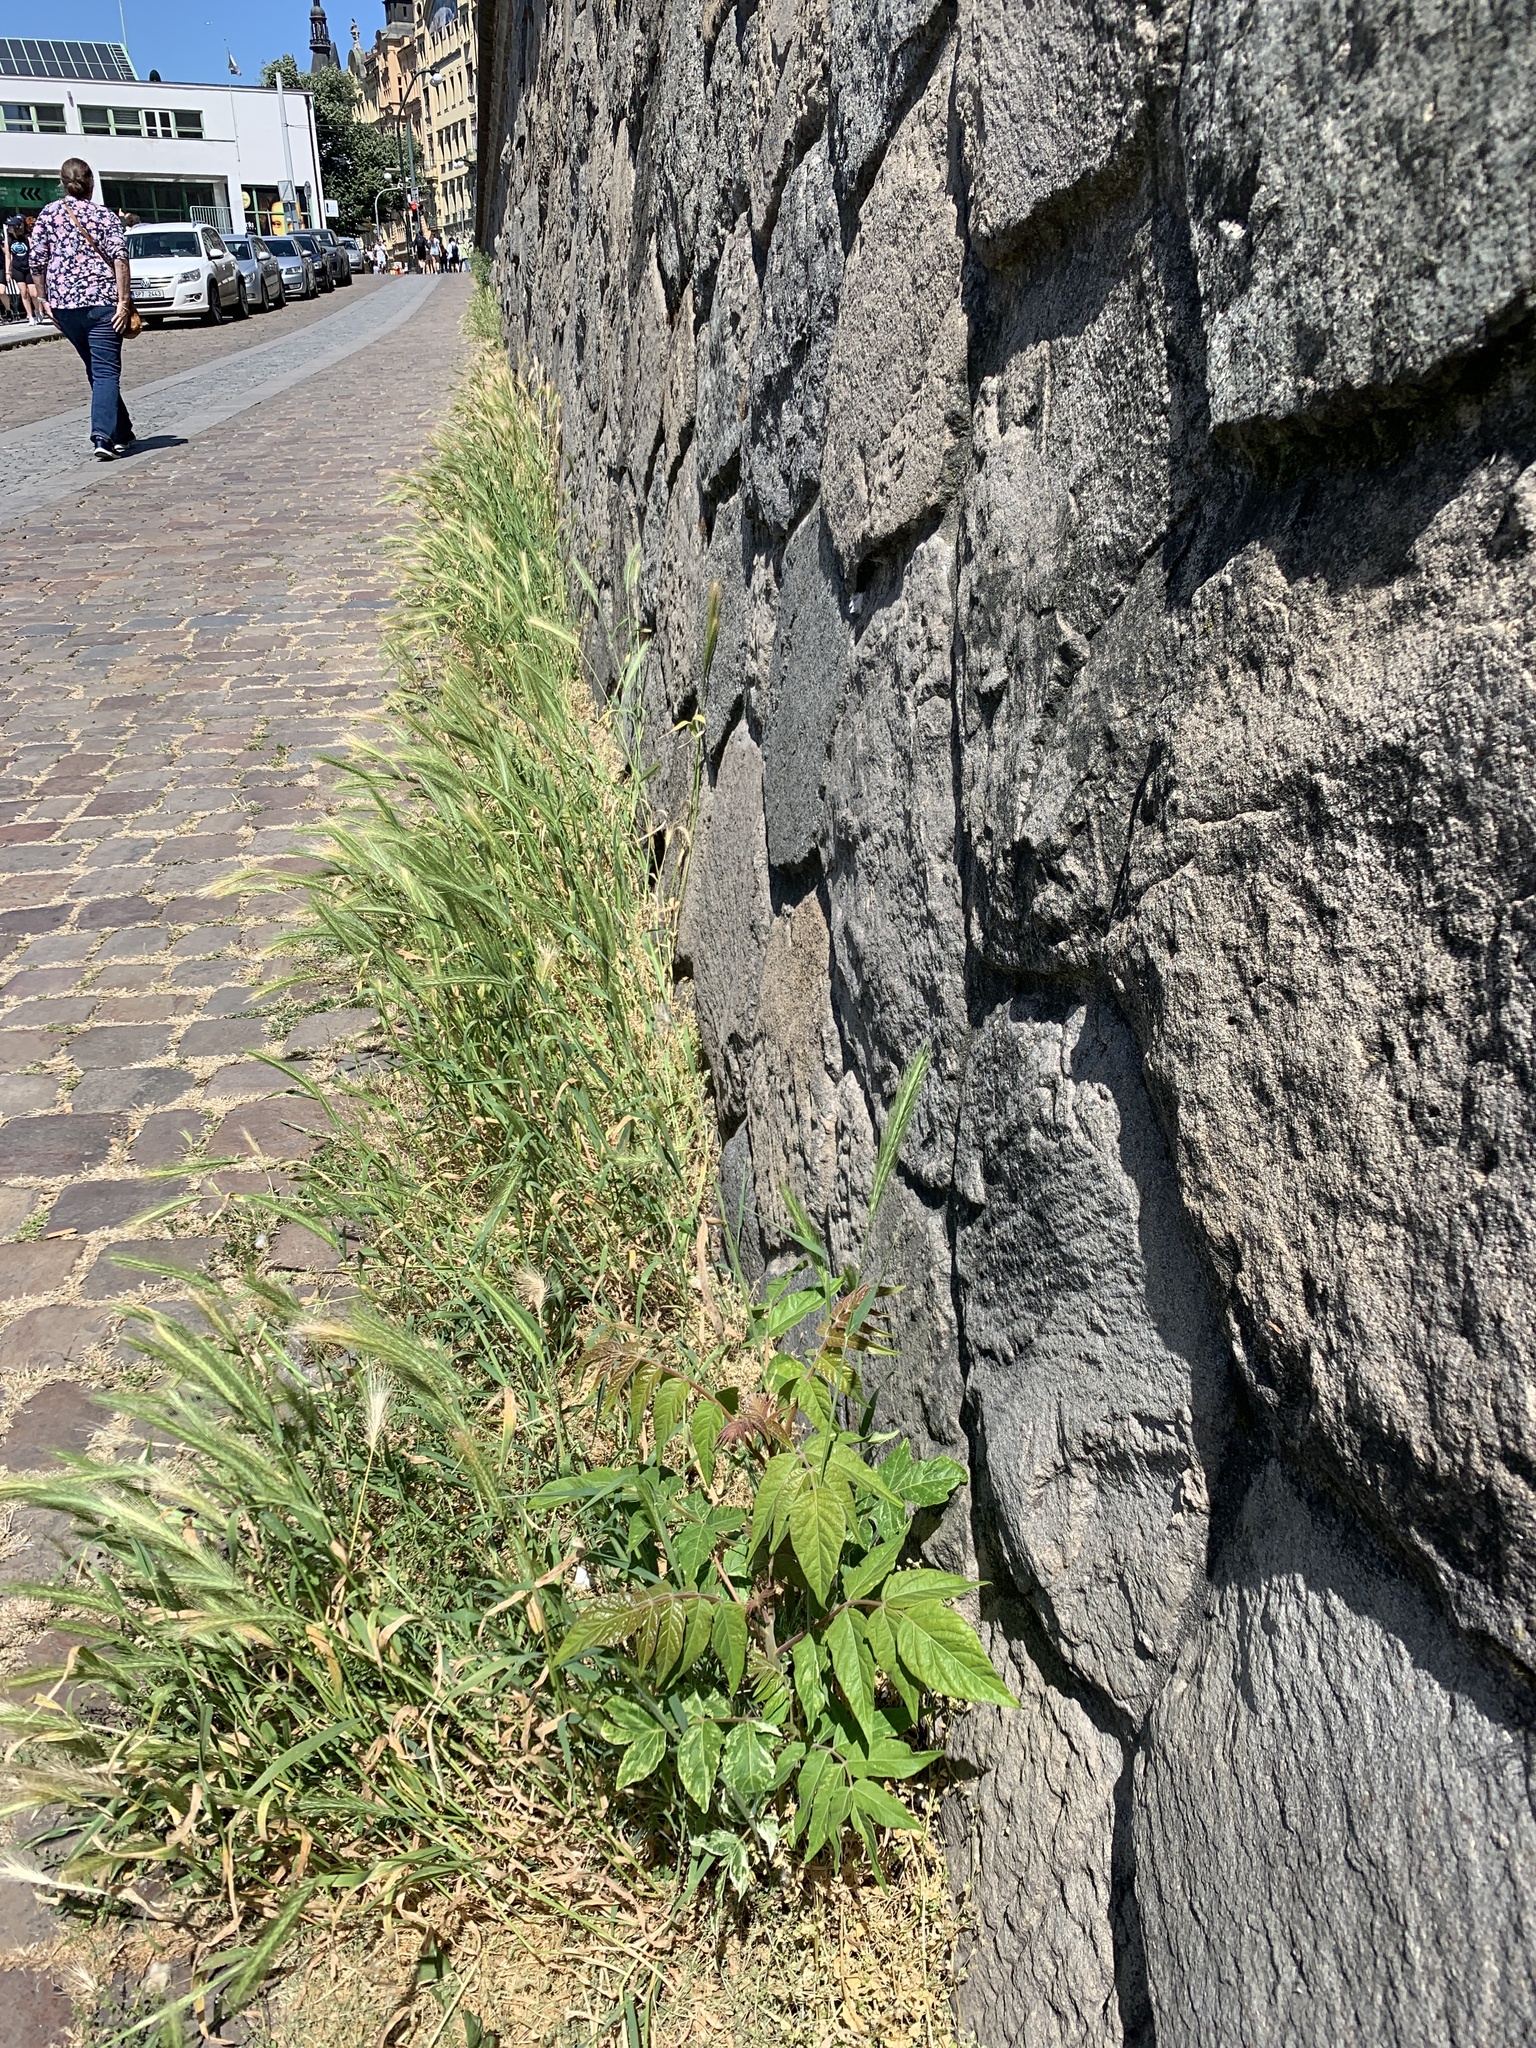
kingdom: Plantae
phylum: Tracheophyta
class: Magnoliopsida
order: Sapindales
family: Simaroubaceae
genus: Ailanthus
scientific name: Ailanthus altissima
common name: Tree-of-heaven
